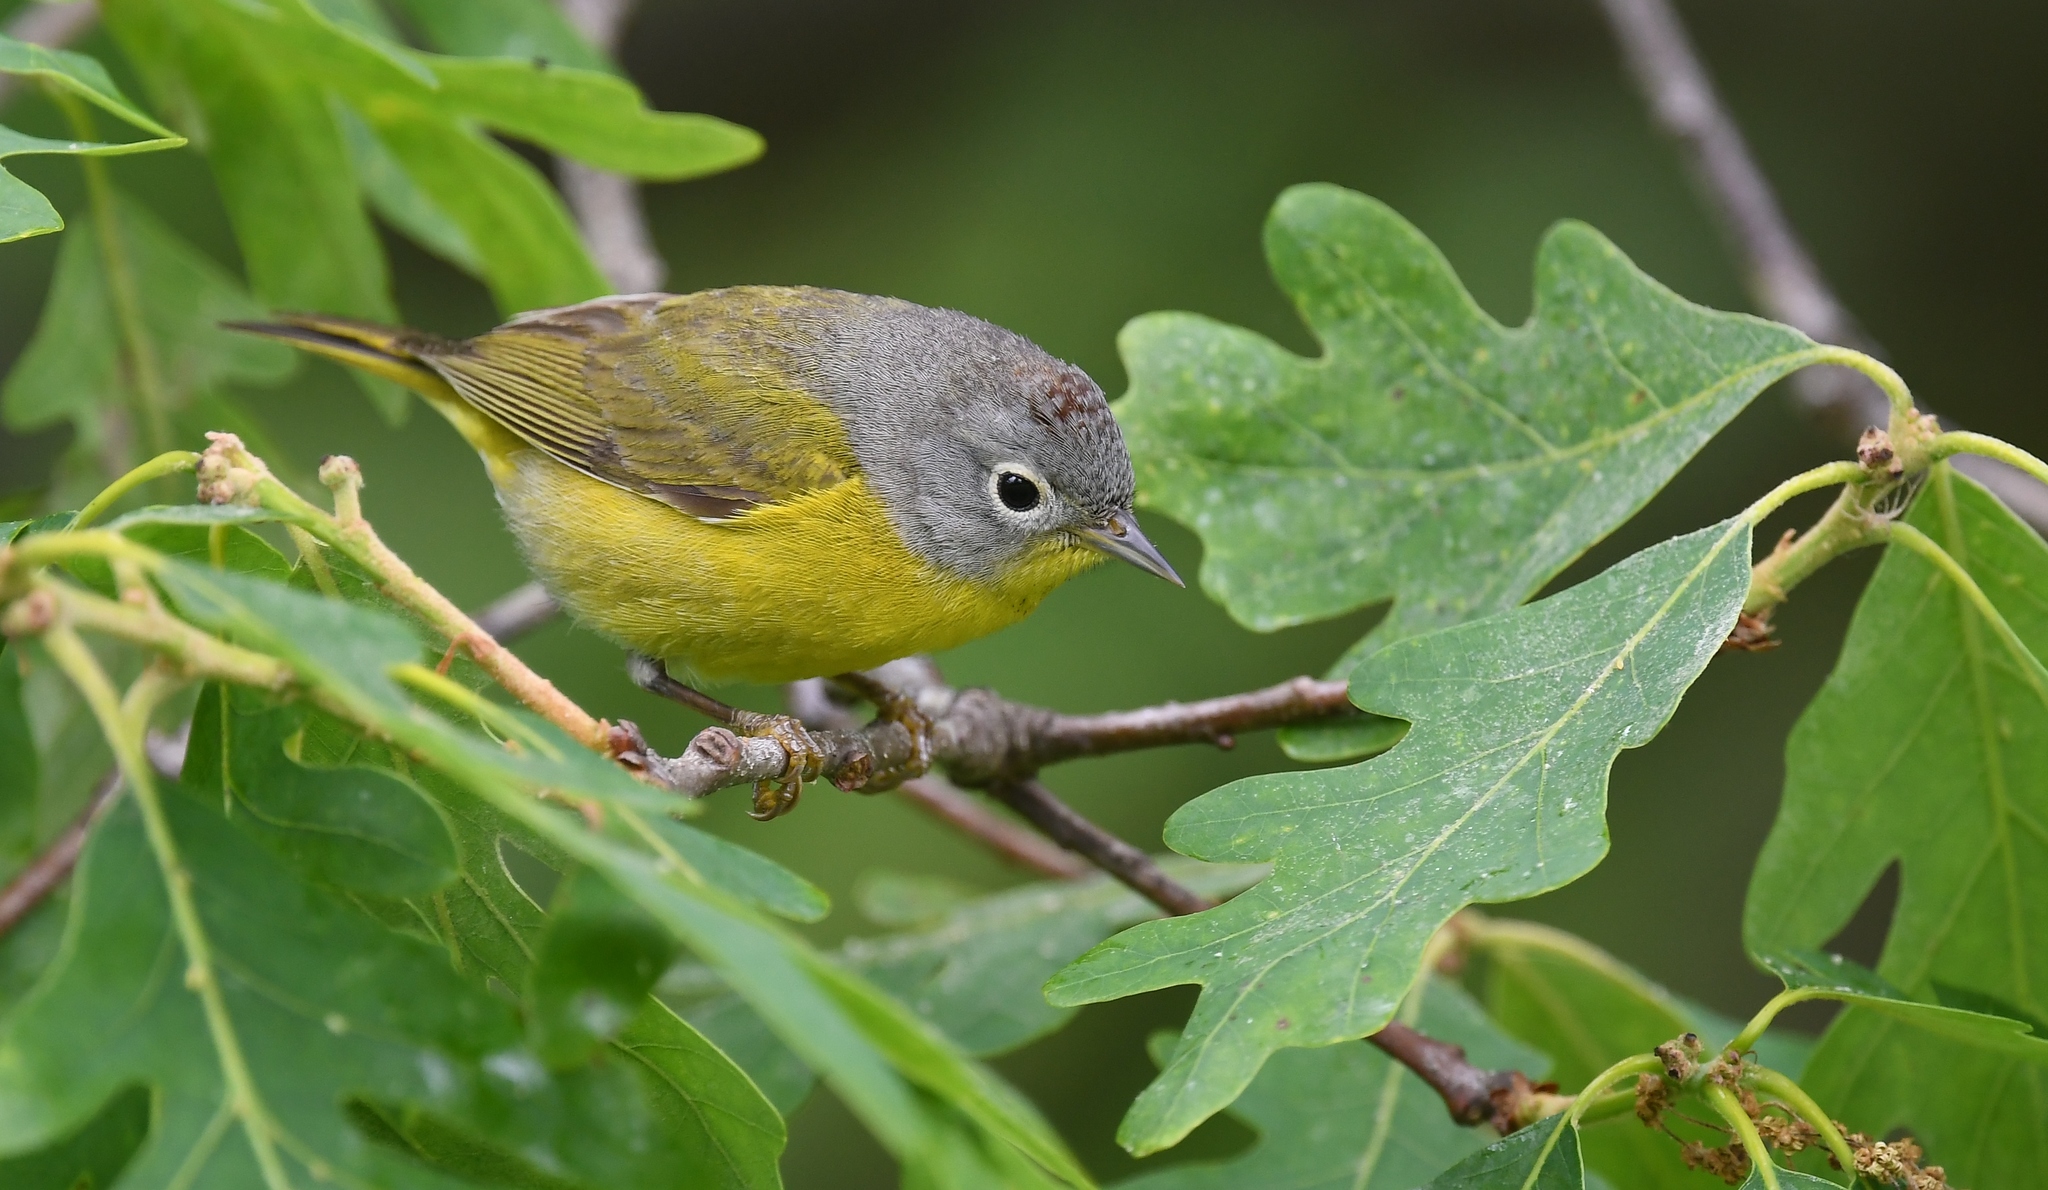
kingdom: Animalia
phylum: Chordata
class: Aves
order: Passeriformes
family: Parulidae
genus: Leiothlypis
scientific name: Leiothlypis ruficapilla
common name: Nashville warbler
